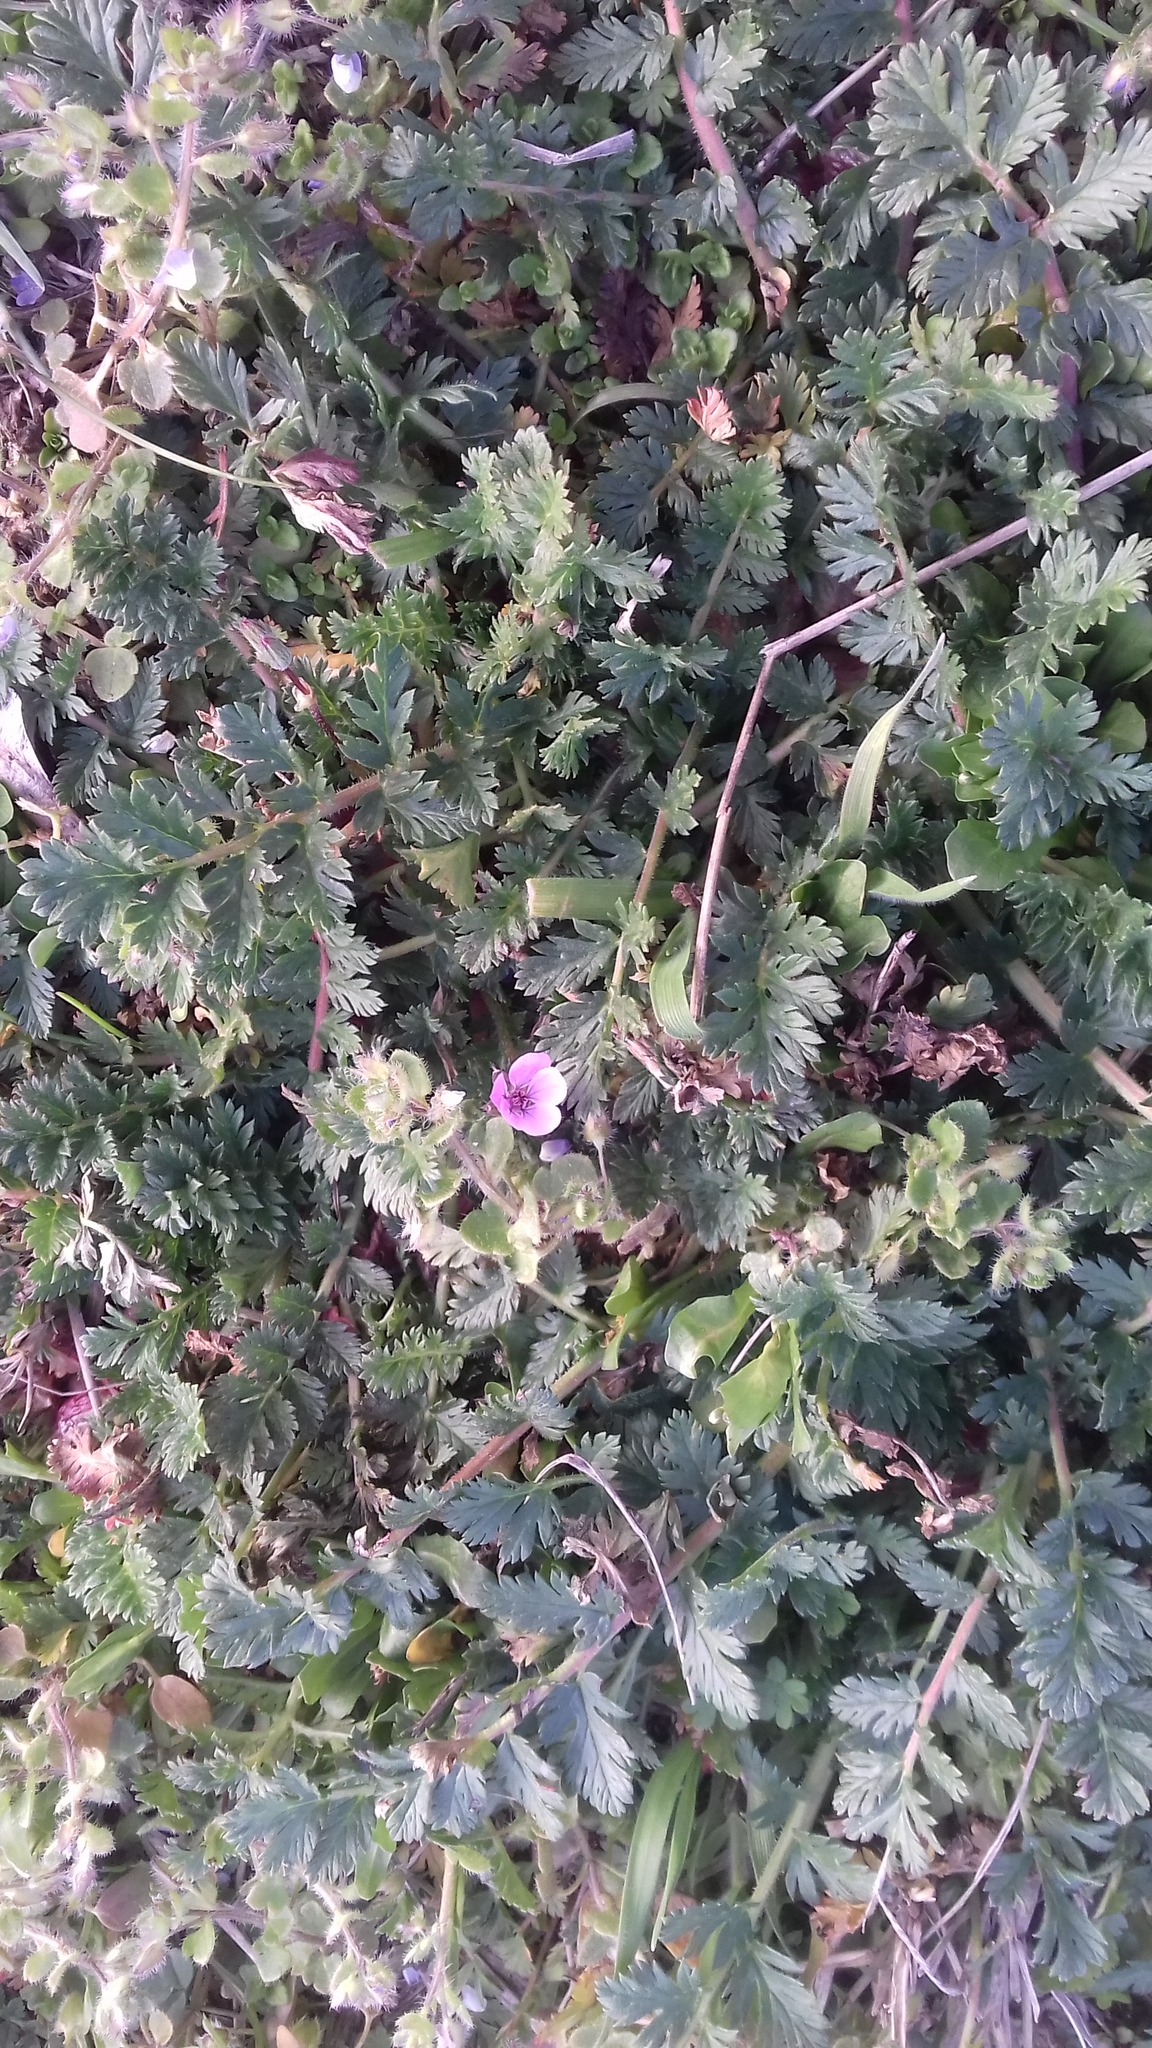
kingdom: Plantae
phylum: Tracheophyta
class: Magnoliopsida
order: Geraniales
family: Geraniaceae
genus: Erodium
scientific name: Erodium cicutarium
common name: Common stork's-bill
